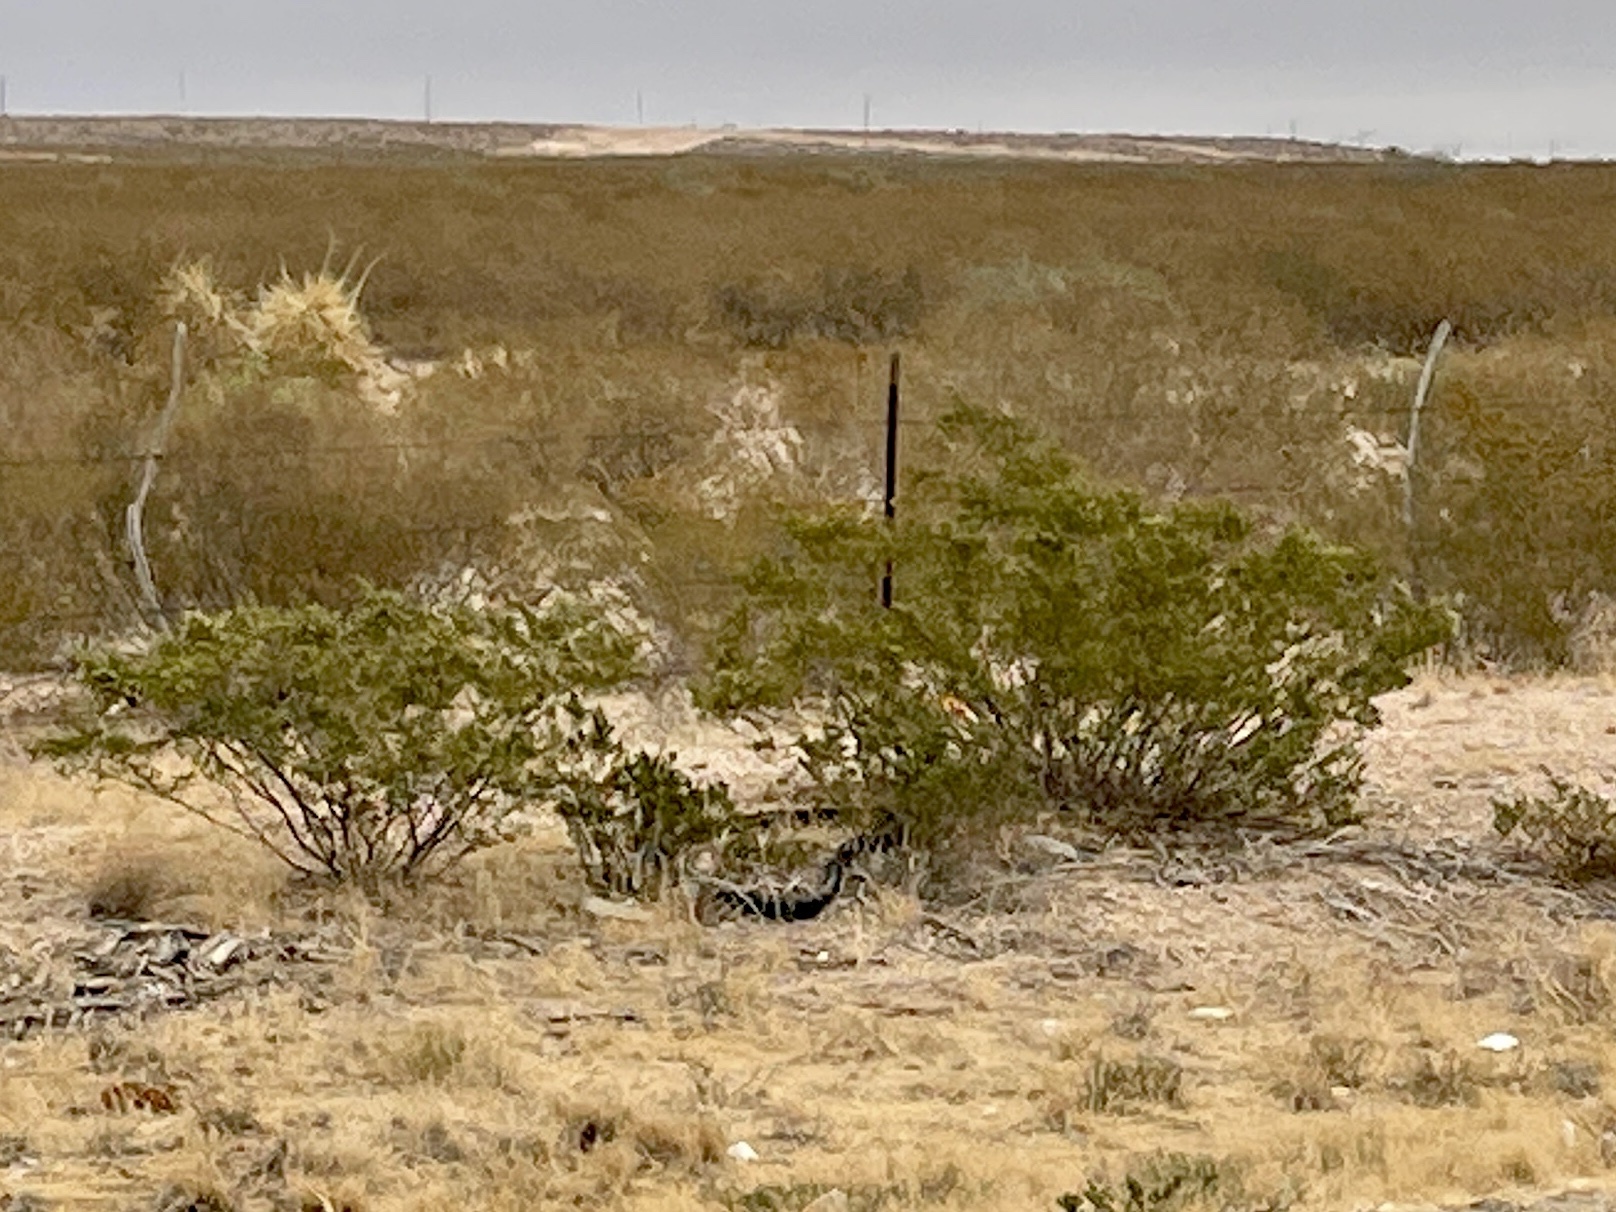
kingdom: Plantae
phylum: Tracheophyta
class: Magnoliopsida
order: Zygophyllales
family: Zygophyllaceae
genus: Larrea
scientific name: Larrea tridentata
